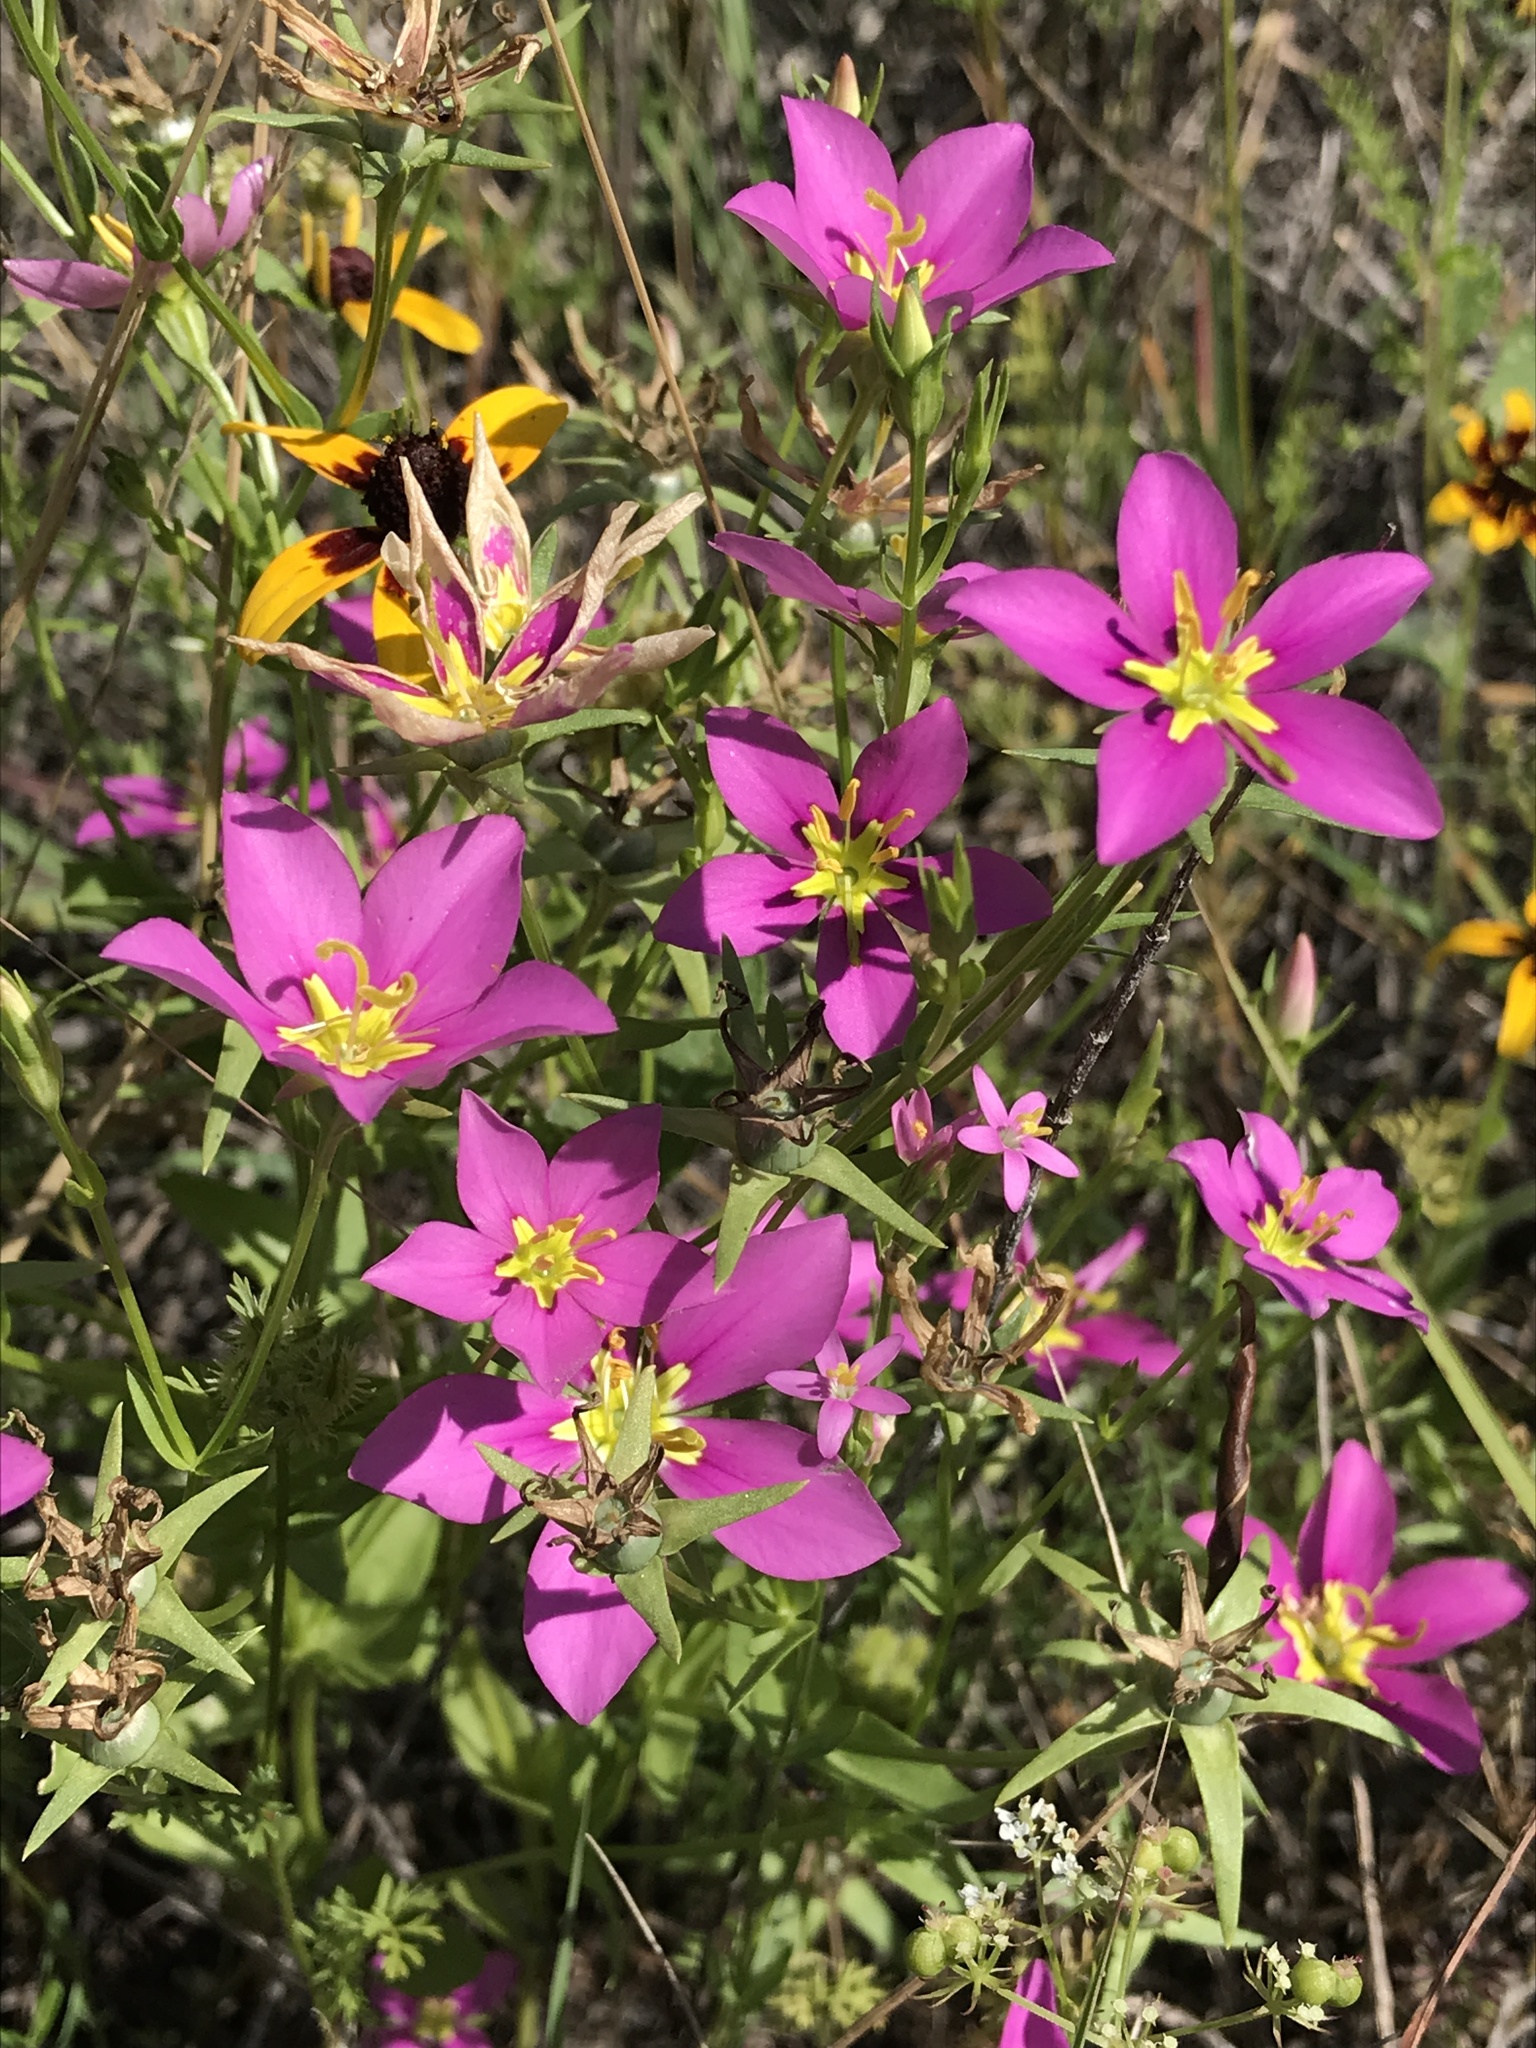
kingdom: Plantae
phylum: Tracheophyta
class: Magnoliopsida
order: Gentianales
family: Gentianaceae
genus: Sabatia
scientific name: Sabatia campestris
